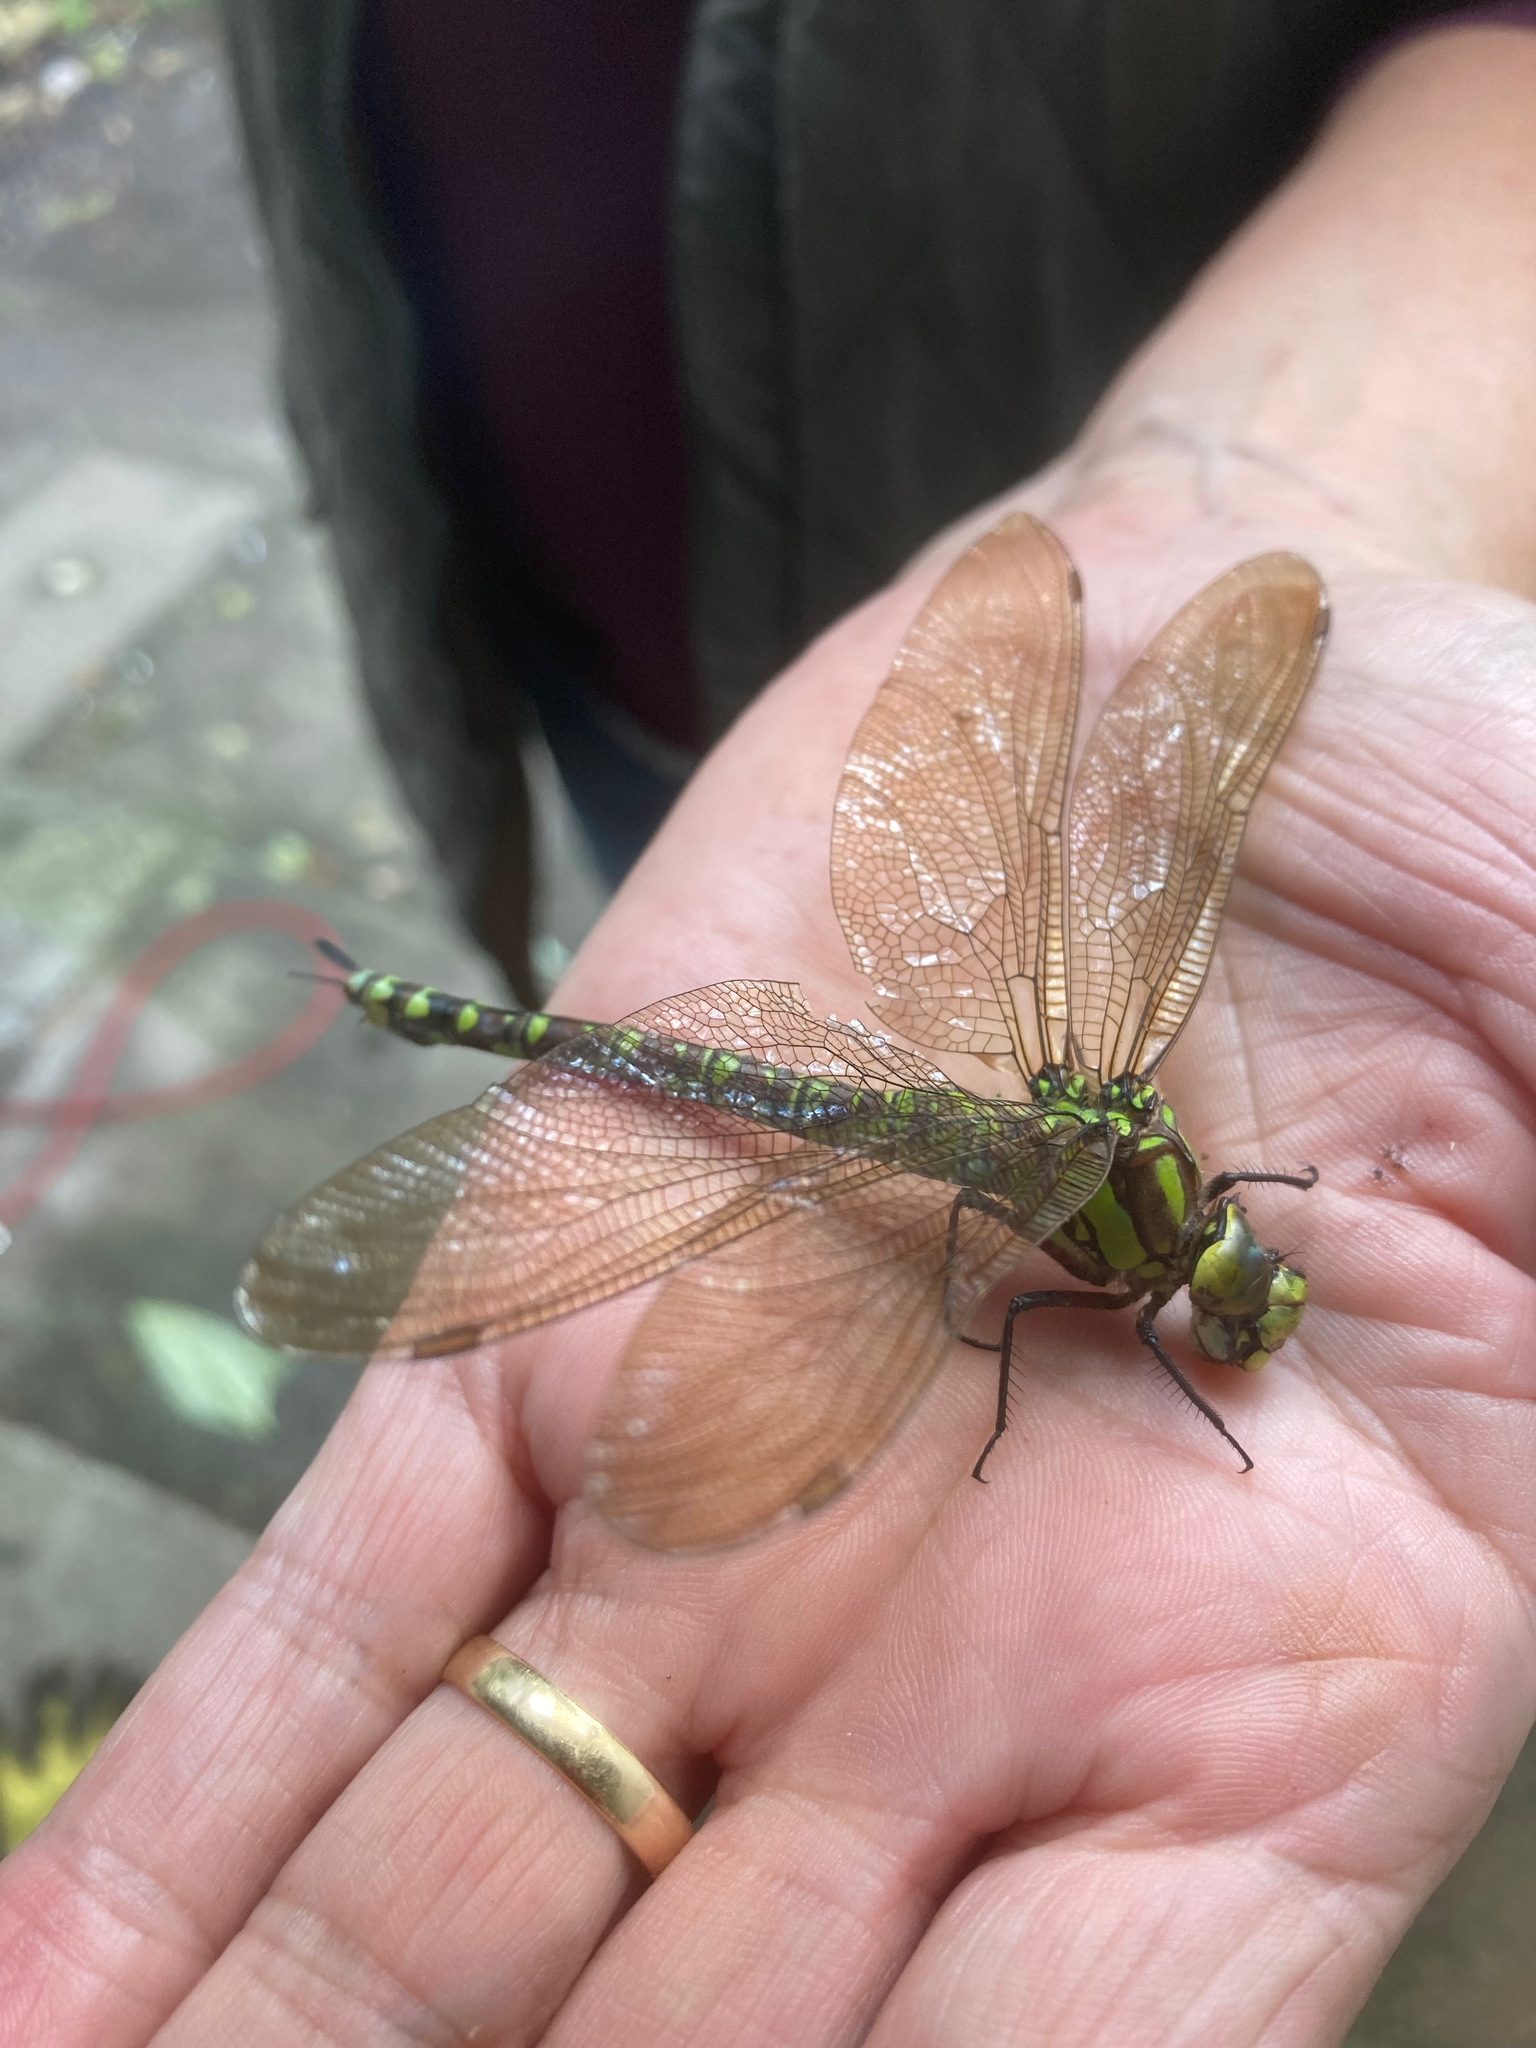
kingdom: Animalia
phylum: Arthropoda
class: Insecta
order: Odonata
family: Aeshnidae
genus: Aeshna
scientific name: Aeshna cyanea
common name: Southern hawker
